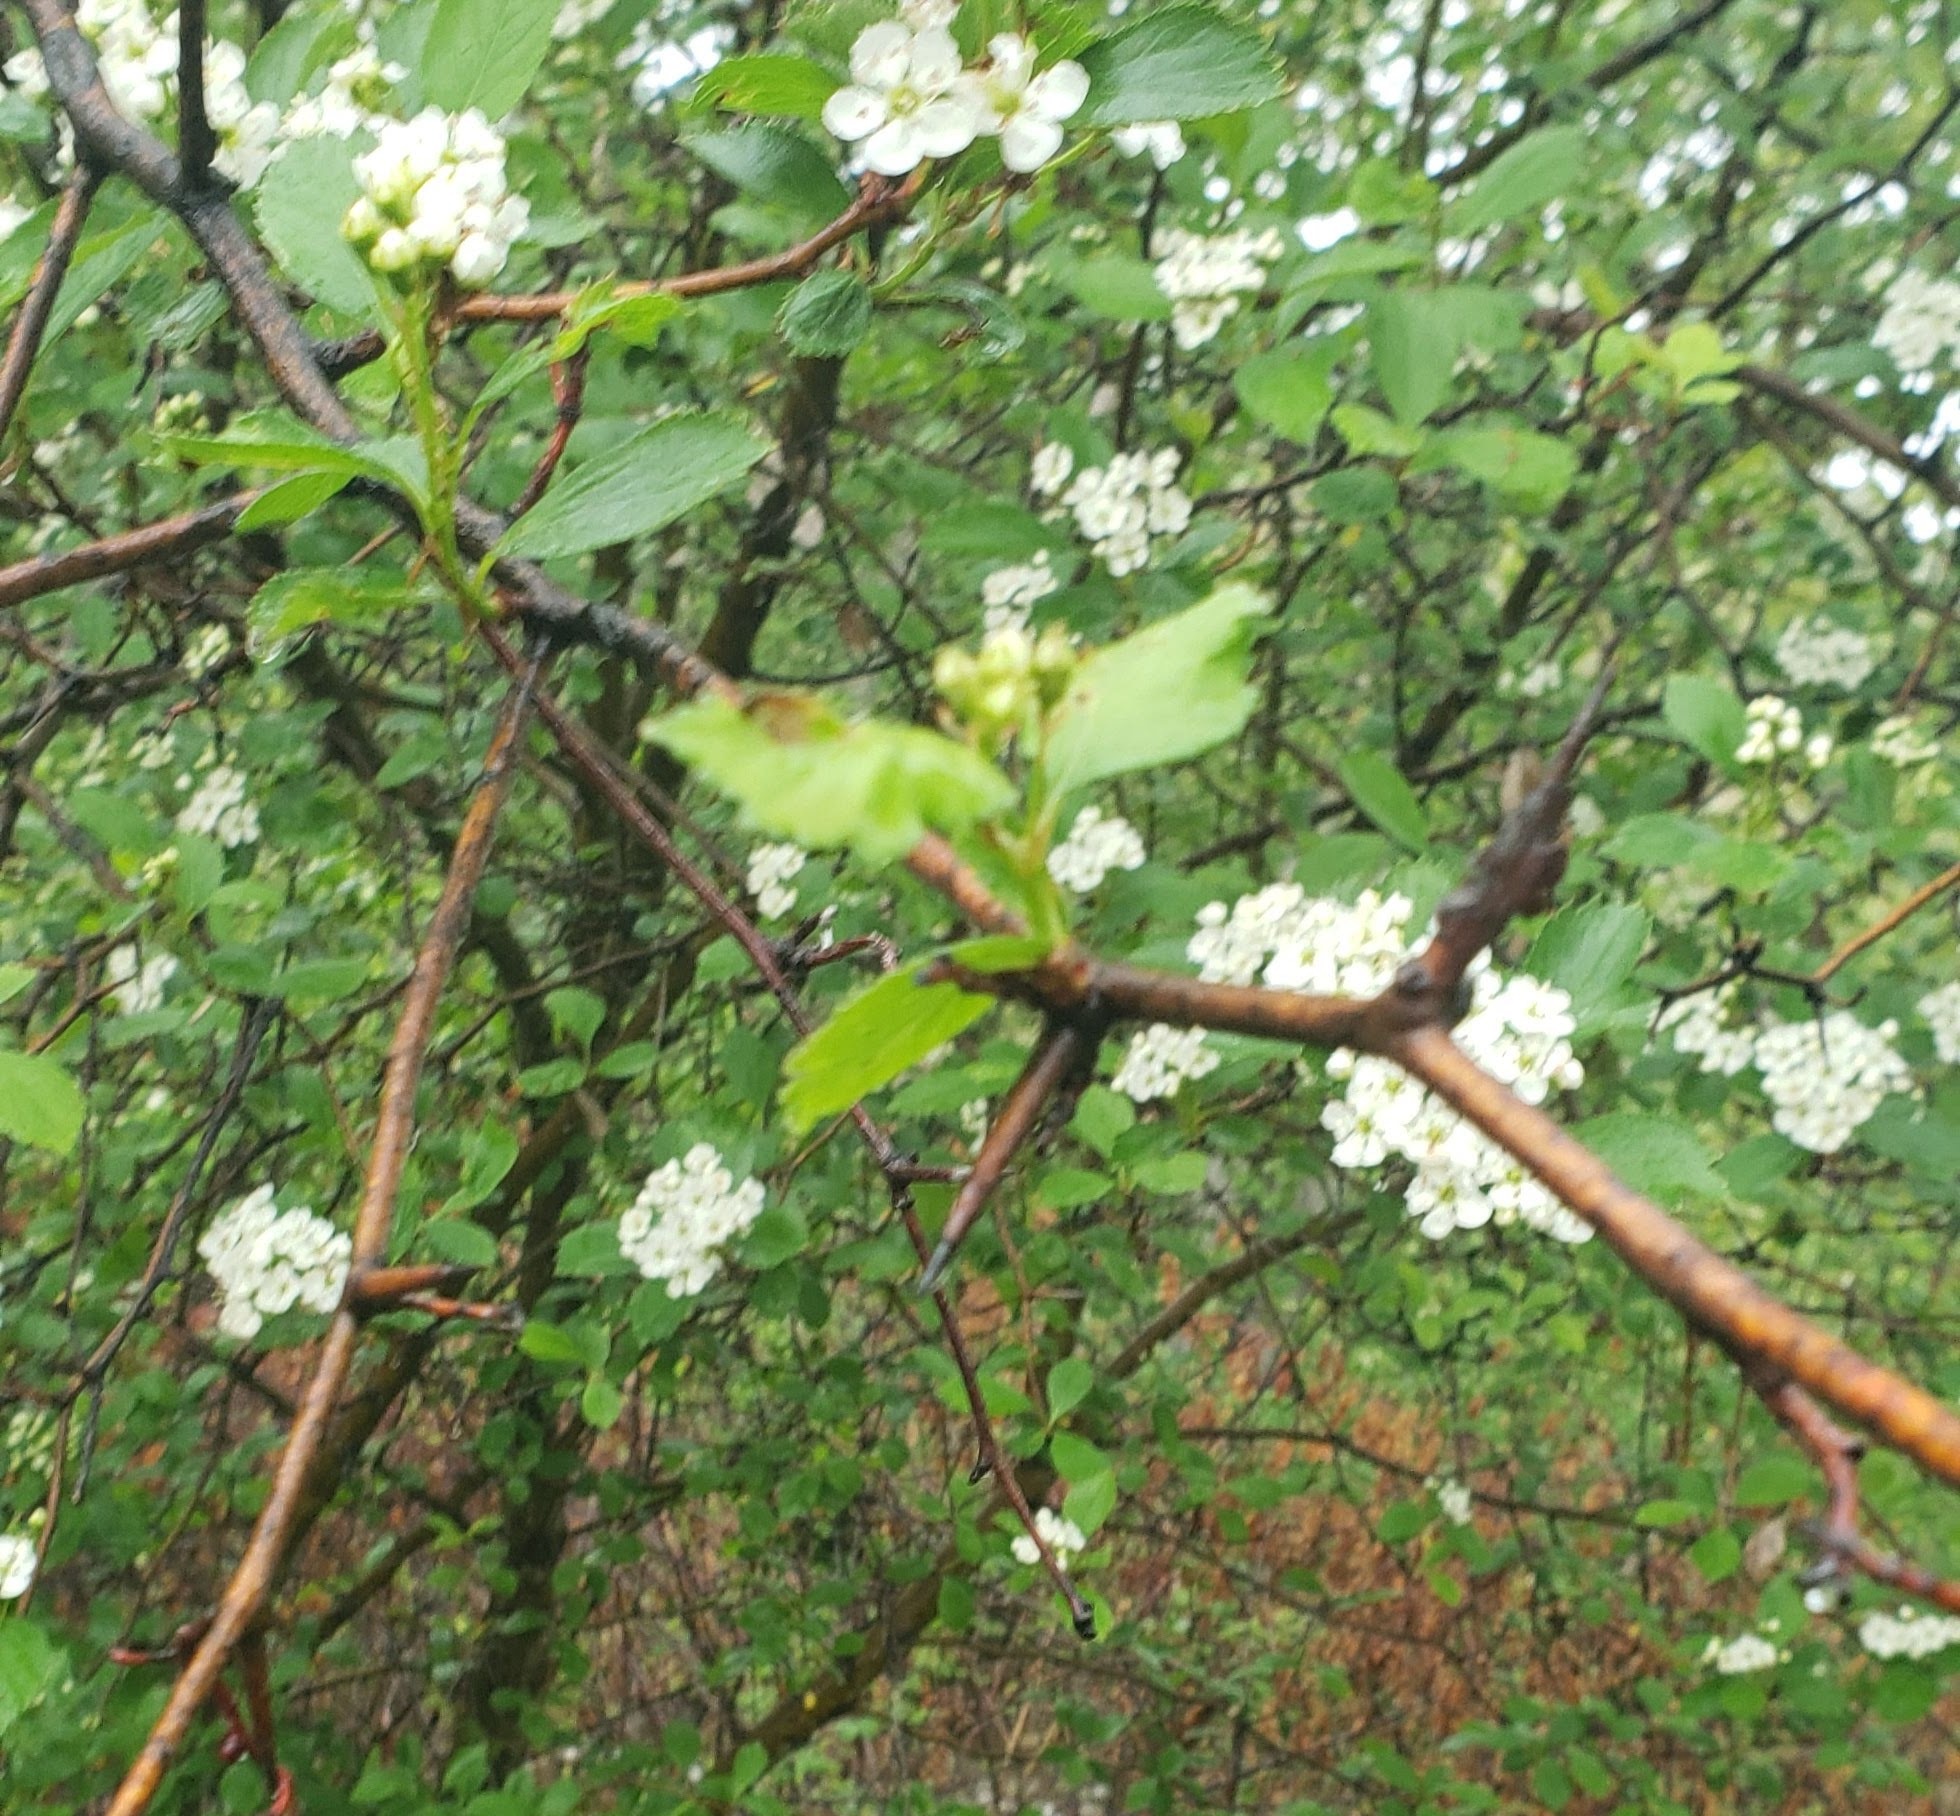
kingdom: Plantae
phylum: Tracheophyta
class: Magnoliopsida
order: Rosales
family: Rosaceae
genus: Crataegus
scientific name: Crataegus douglasii
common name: Black hawthorn
